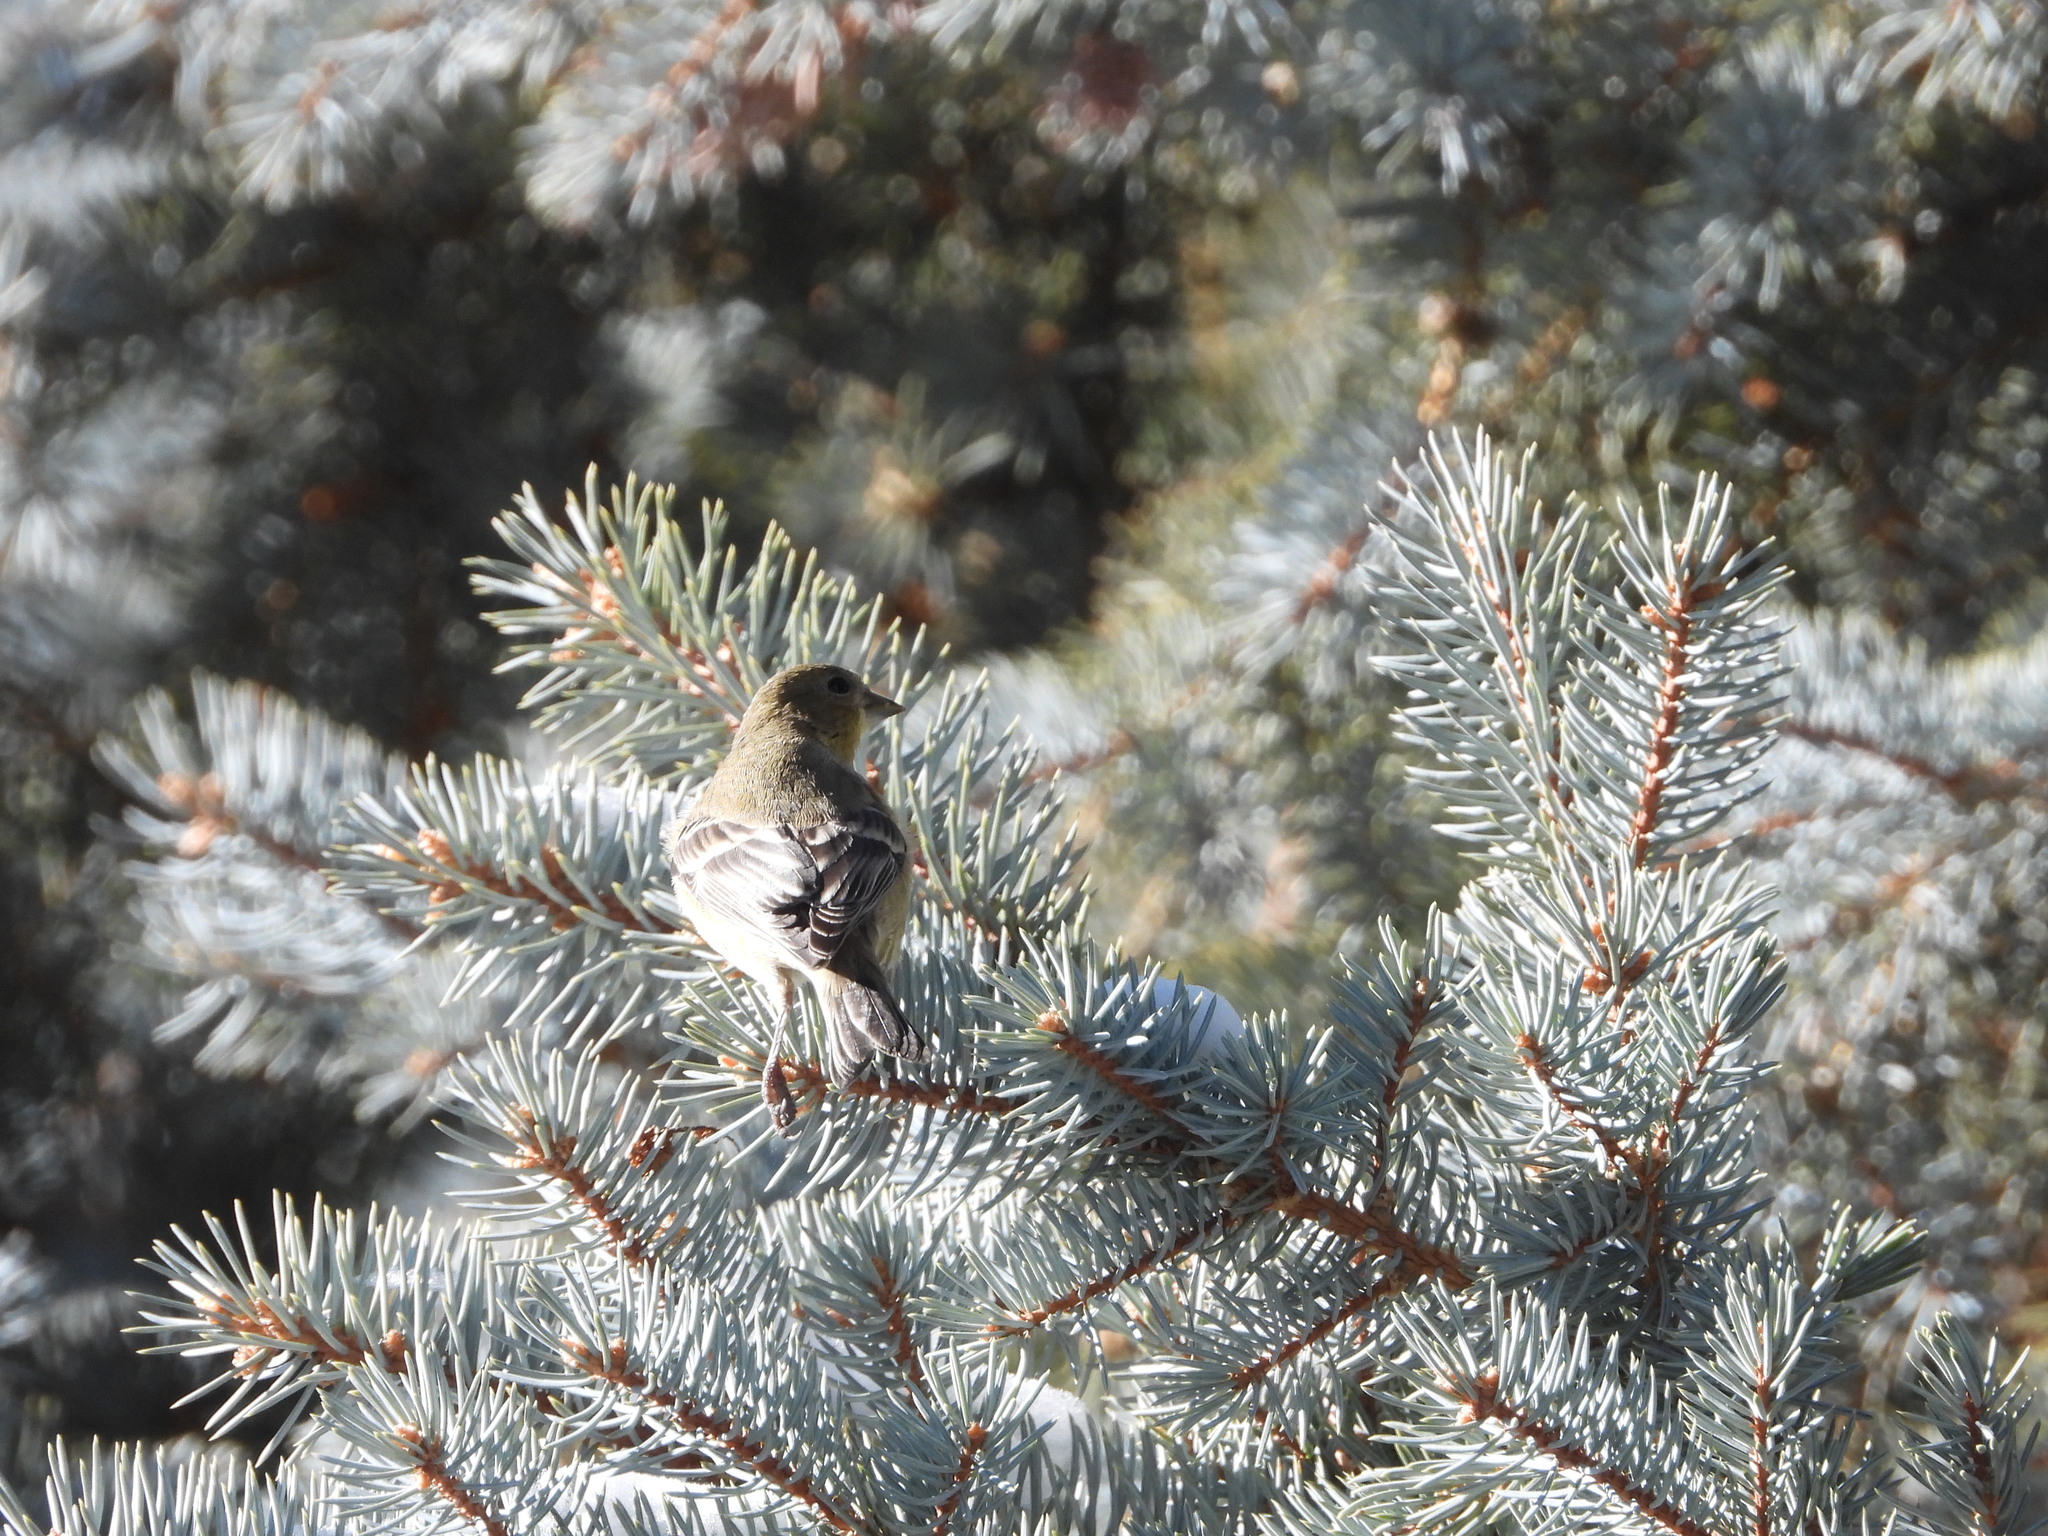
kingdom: Animalia
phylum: Chordata
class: Aves
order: Passeriformes
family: Fringillidae
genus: Spinus
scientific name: Spinus psaltria
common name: Lesser goldfinch
